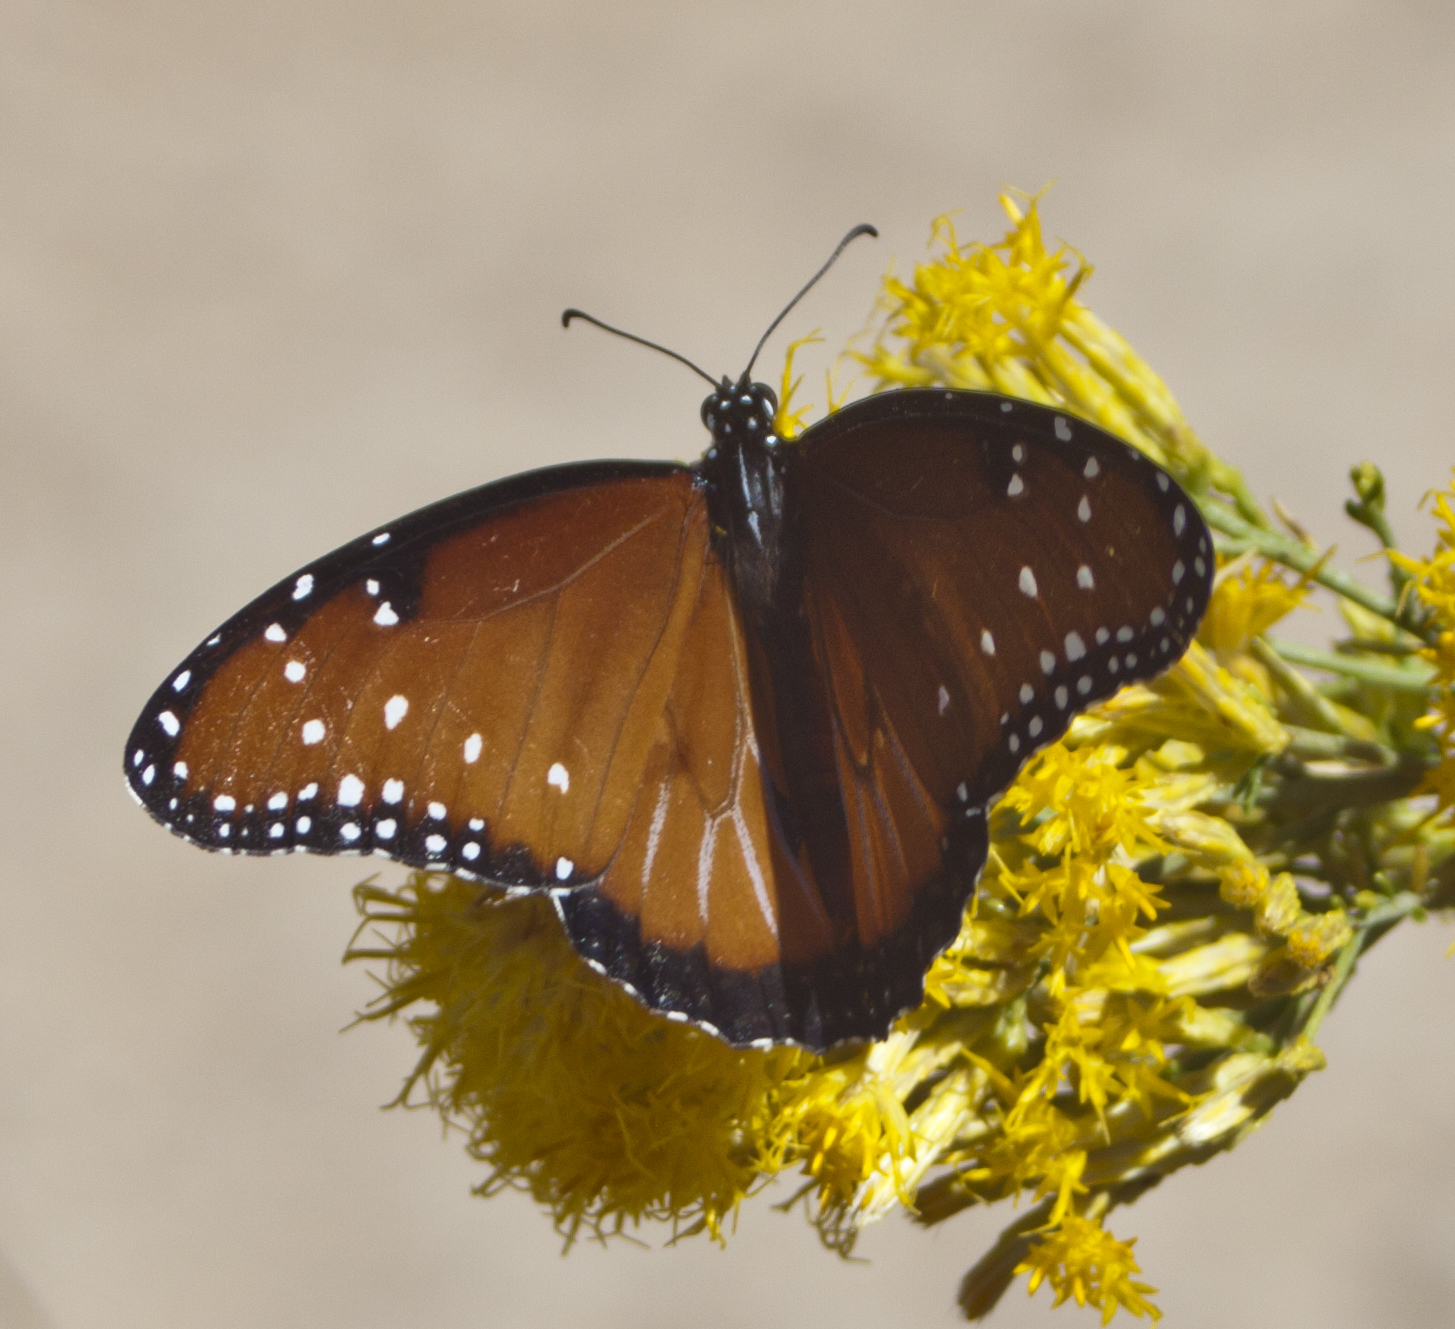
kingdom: Animalia
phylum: Arthropoda
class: Insecta
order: Lepidoptera
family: Nymphalidae
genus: Danaus
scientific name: Danaus gilippus
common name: Queen
